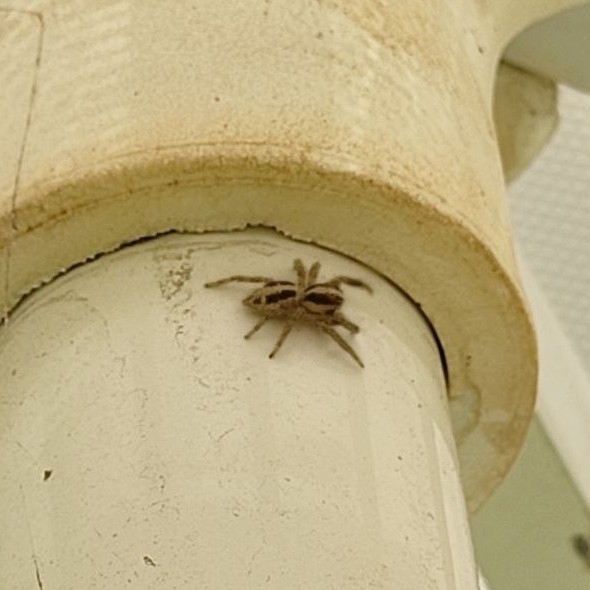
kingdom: Animalia
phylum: Arthropoda
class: Arachnida
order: Araneae
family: Salticidae
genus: Plexippus
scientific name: Plexippus paykulli
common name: Pantropical jumper
